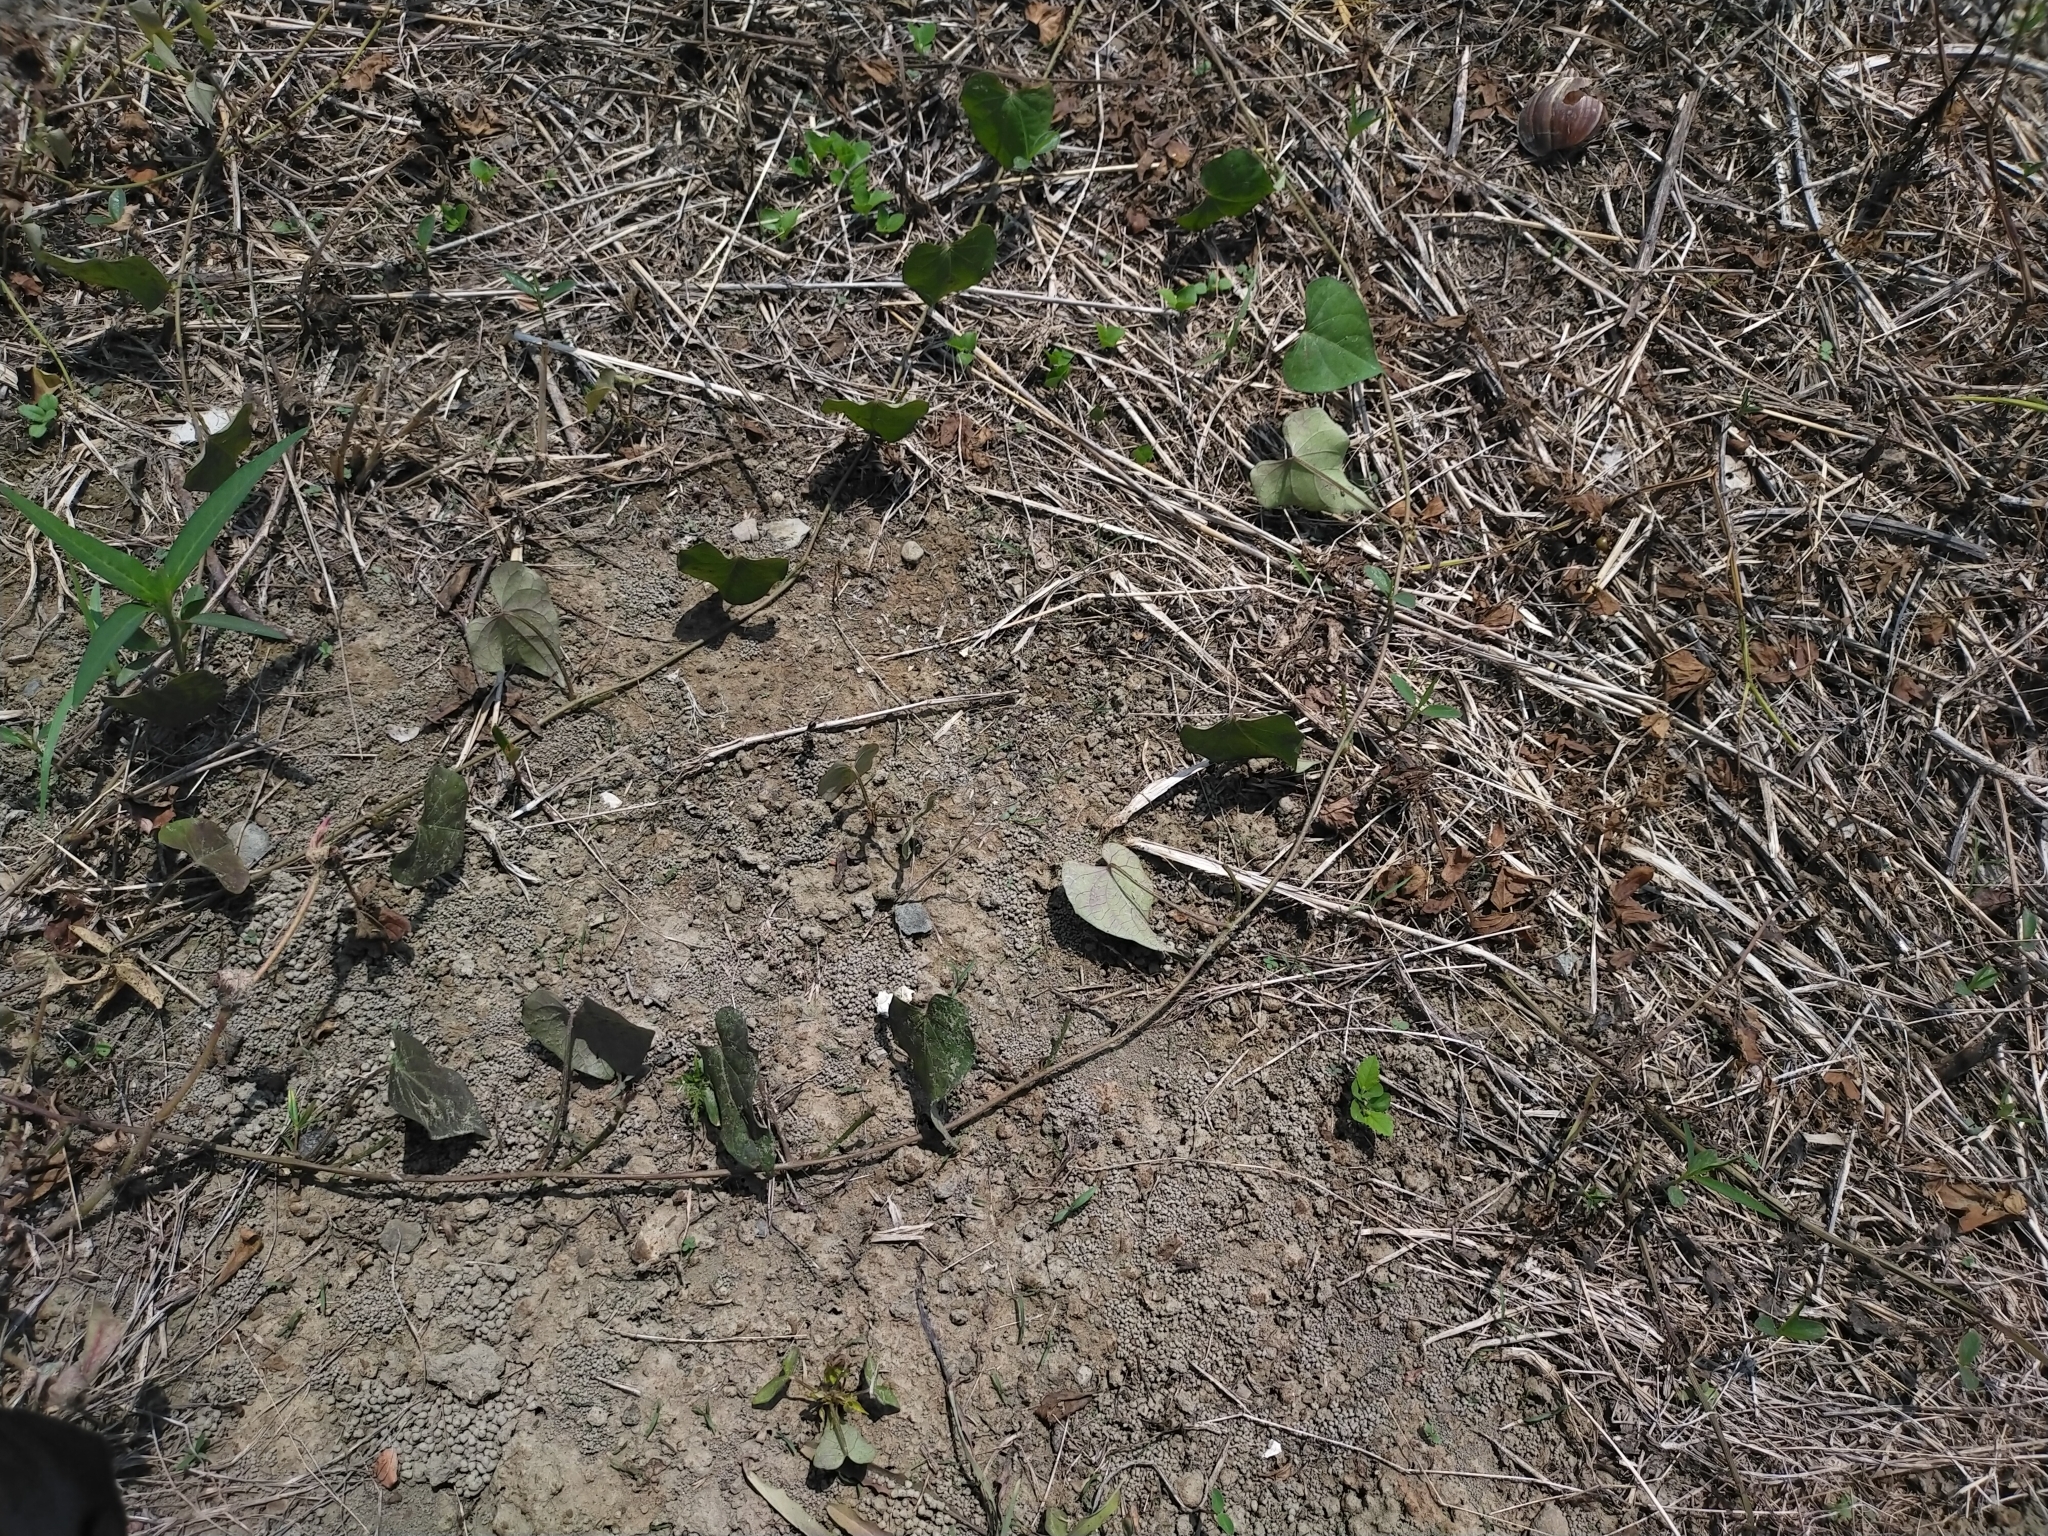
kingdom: Plantae
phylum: Tracheophyta
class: Magnoliopsida
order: Solanales
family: Convolvulaceae
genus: Ipomoea
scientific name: Ipomoea obscura
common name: Obscure morning-glory
